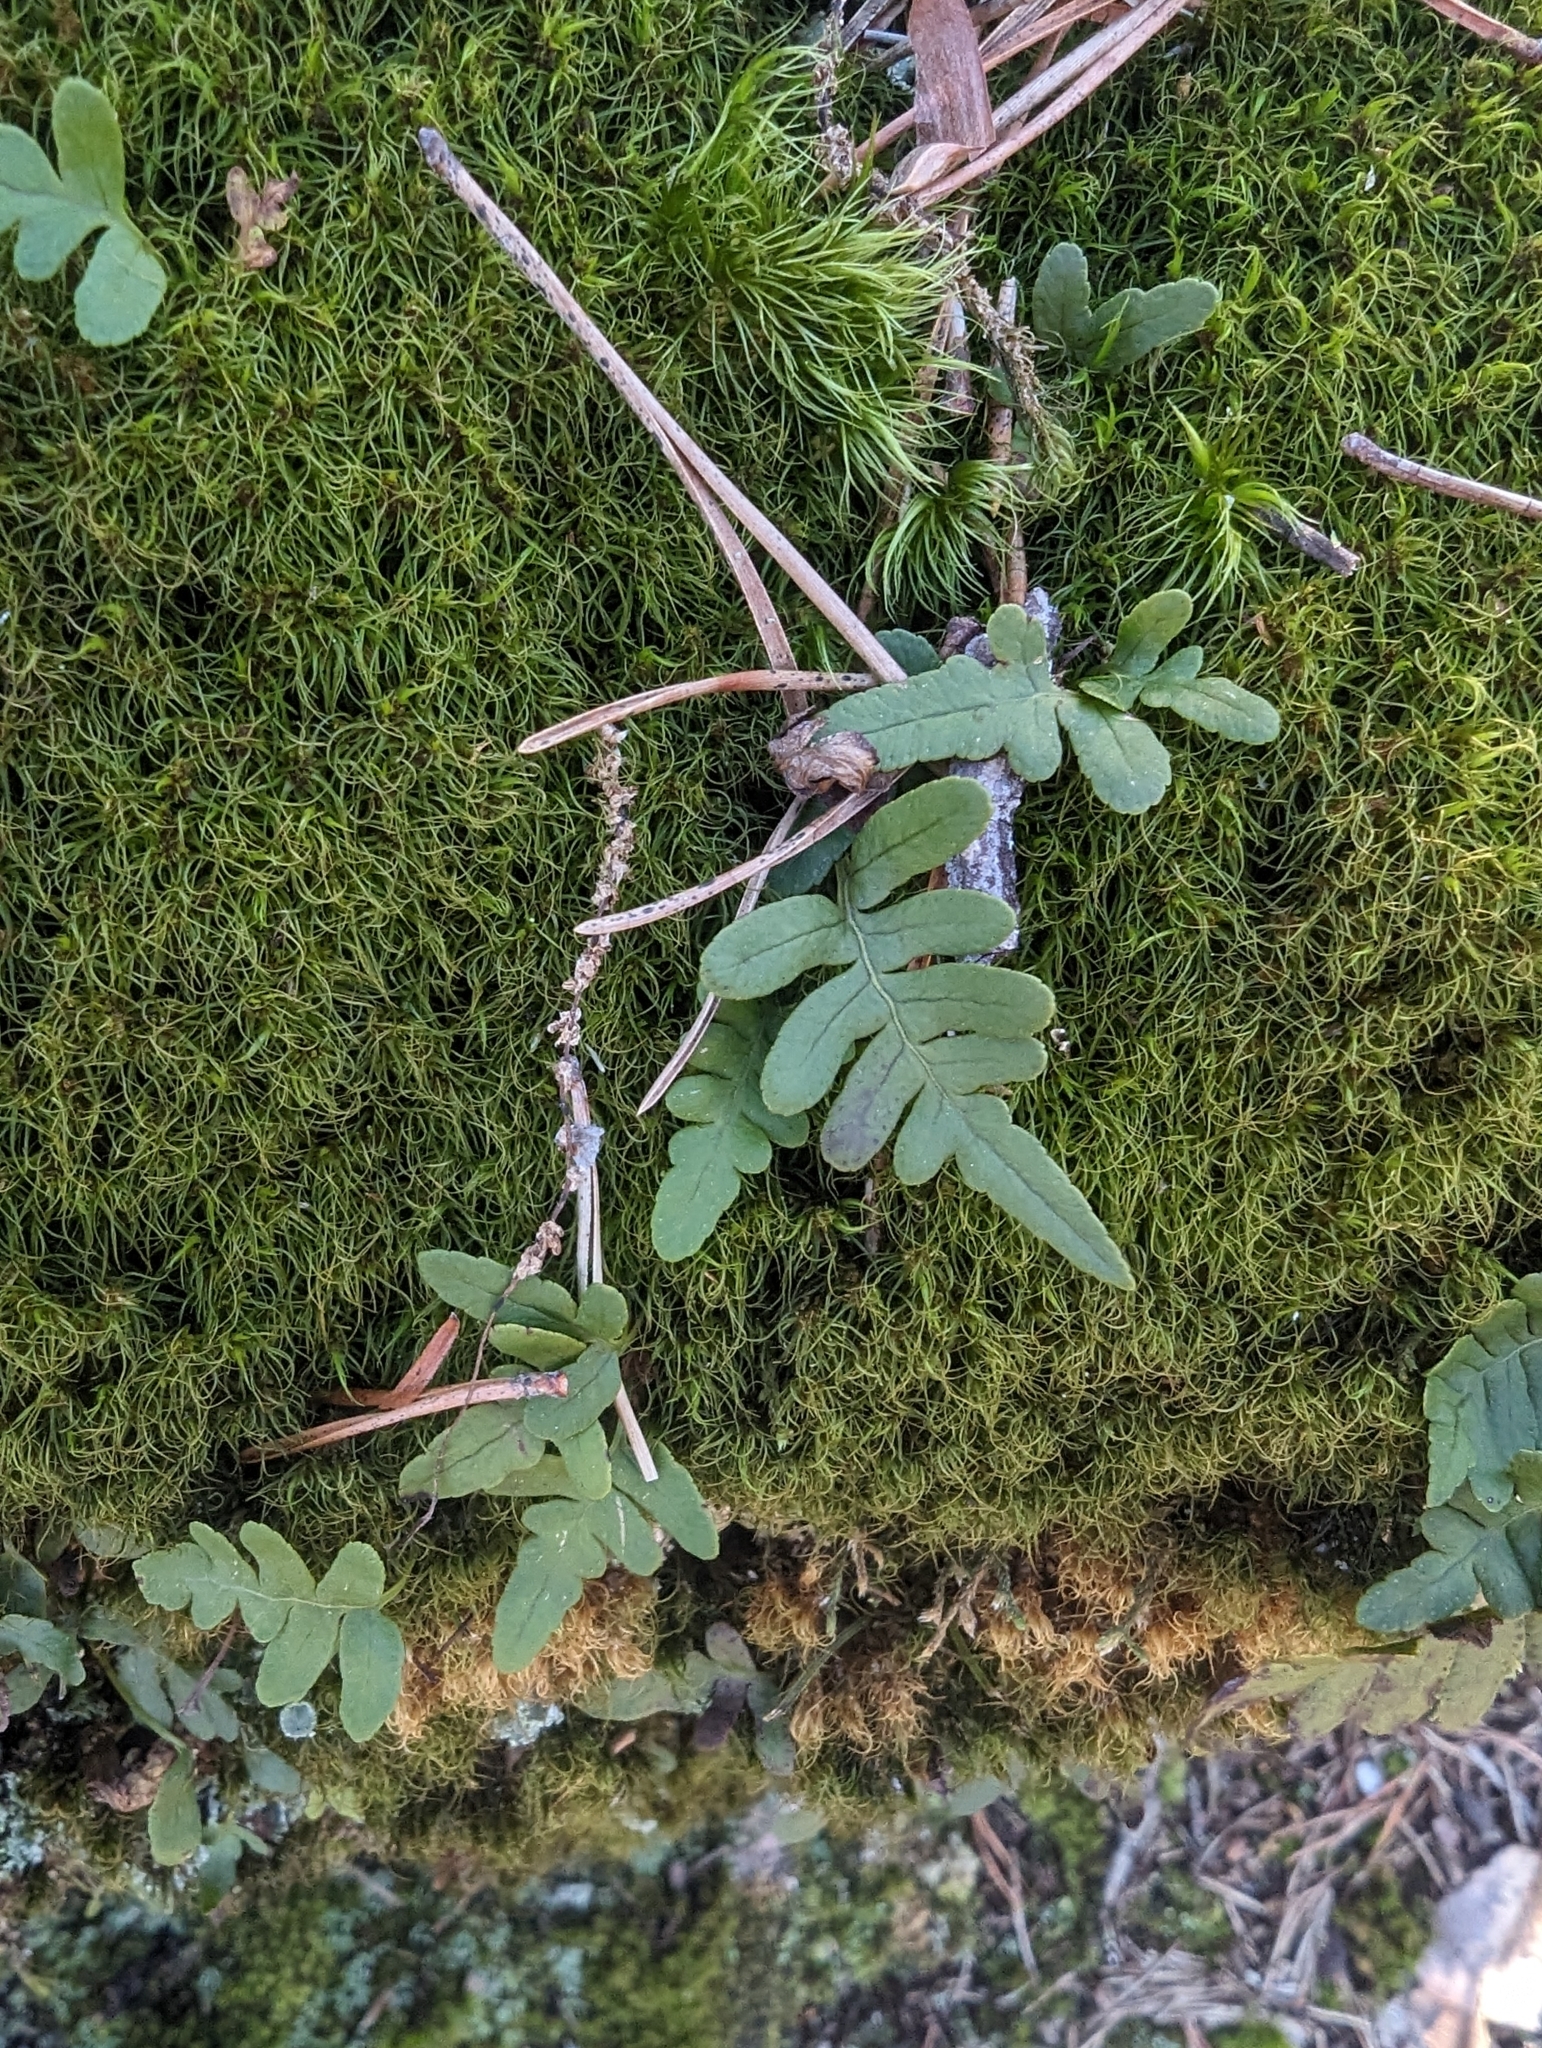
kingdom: Plantae
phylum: Tracheophyta
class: Polypodiopsida
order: Polypodiales
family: Polypodiaceae
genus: Polypodium
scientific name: Polypodium virginianum
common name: American wall fern
